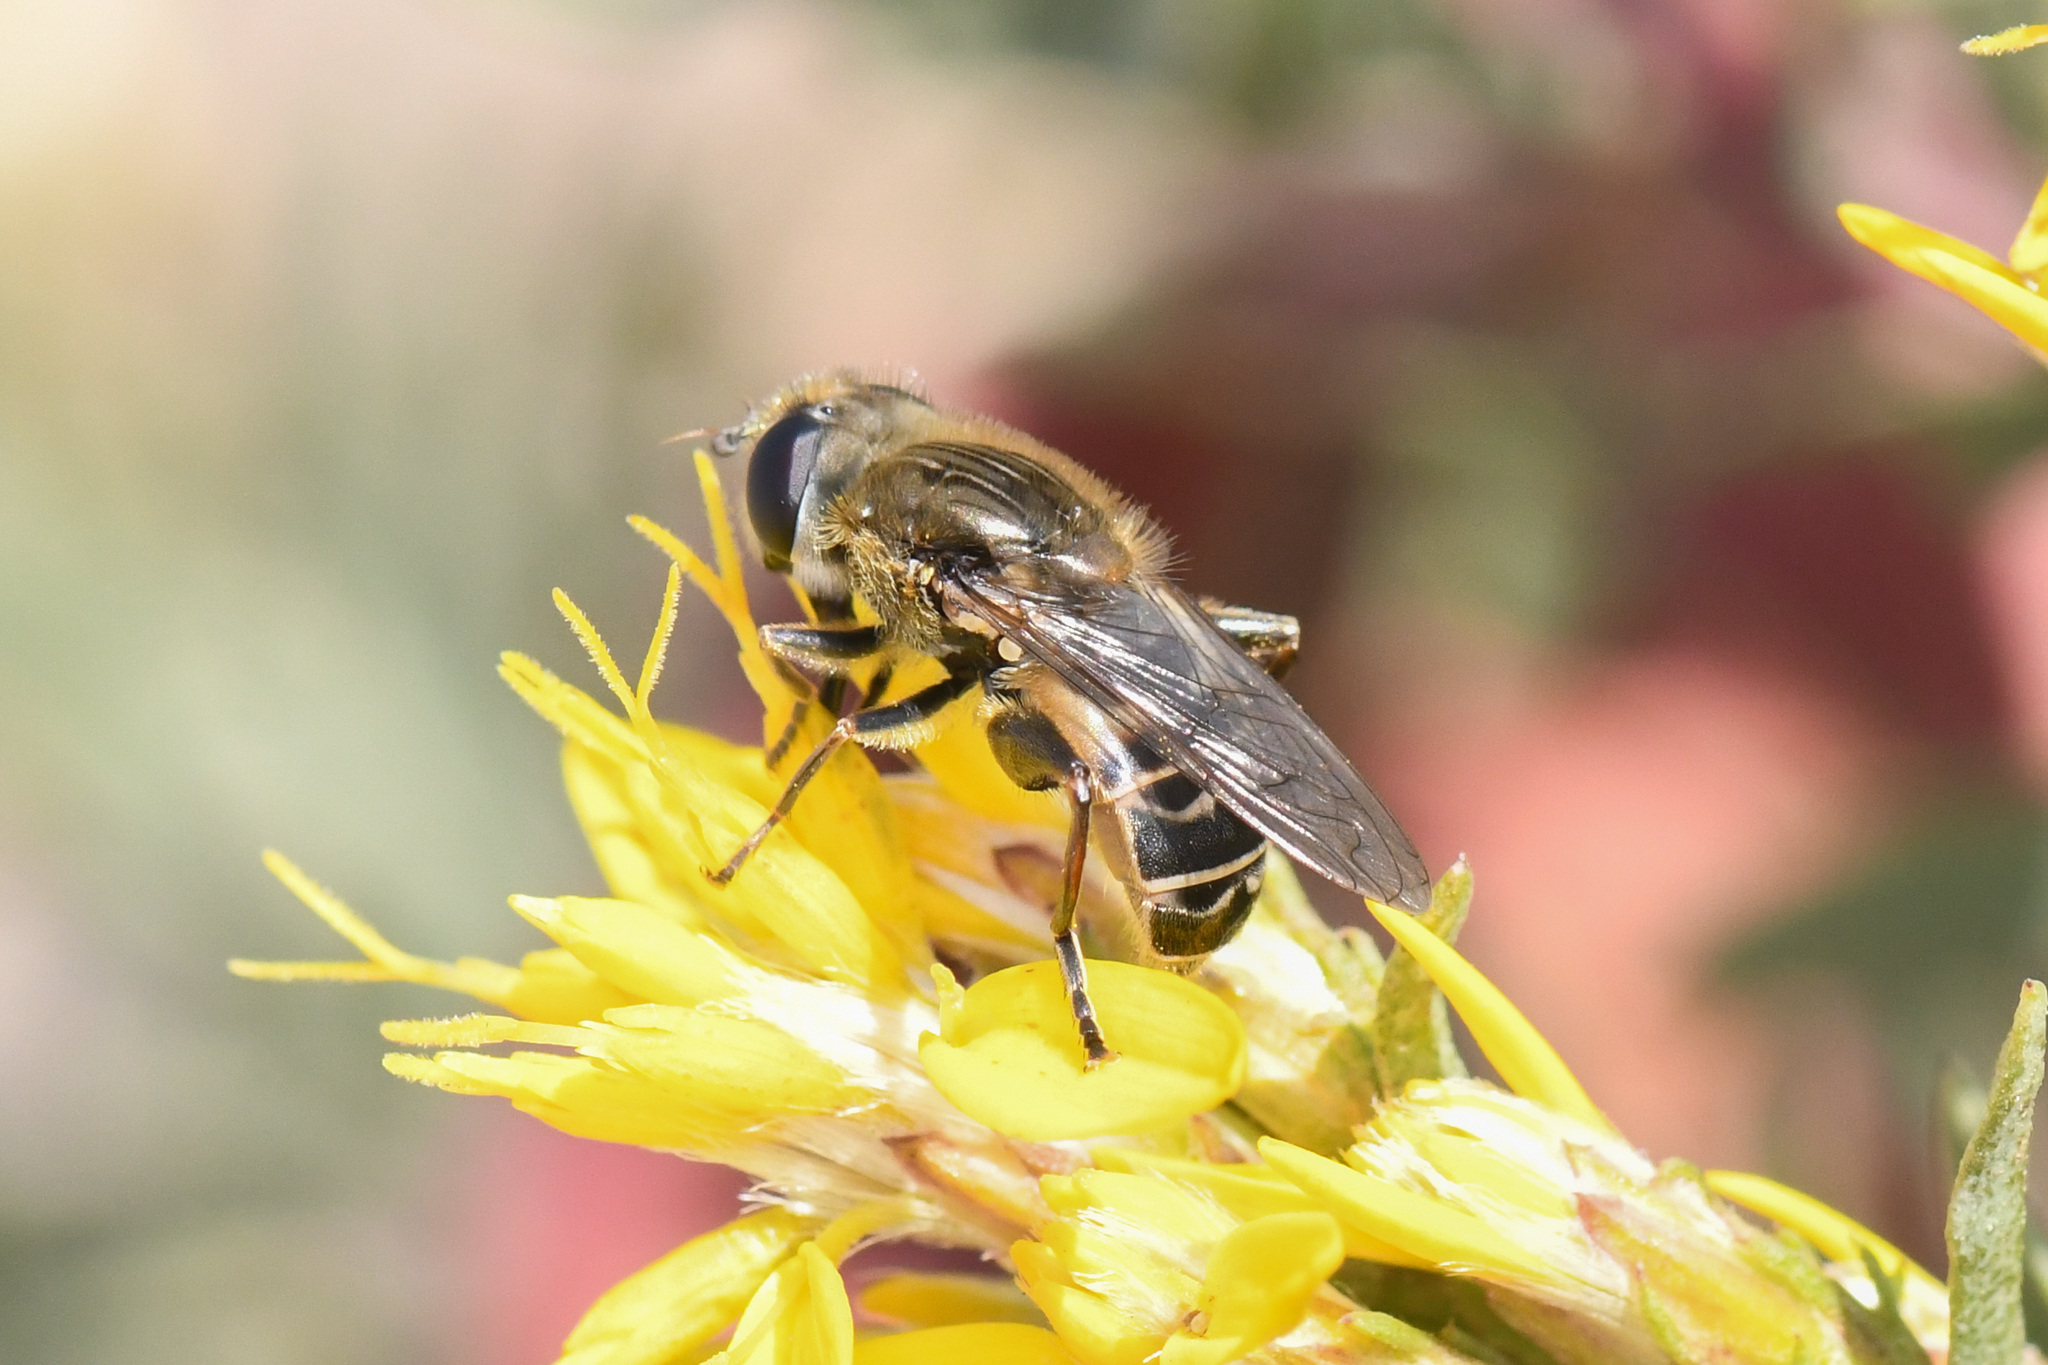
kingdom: Animalia
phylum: Arthropoda
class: Insecta
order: Diptera
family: Syrphidae
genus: Asemosyrphus
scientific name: Asemosyrphus polygrammus
